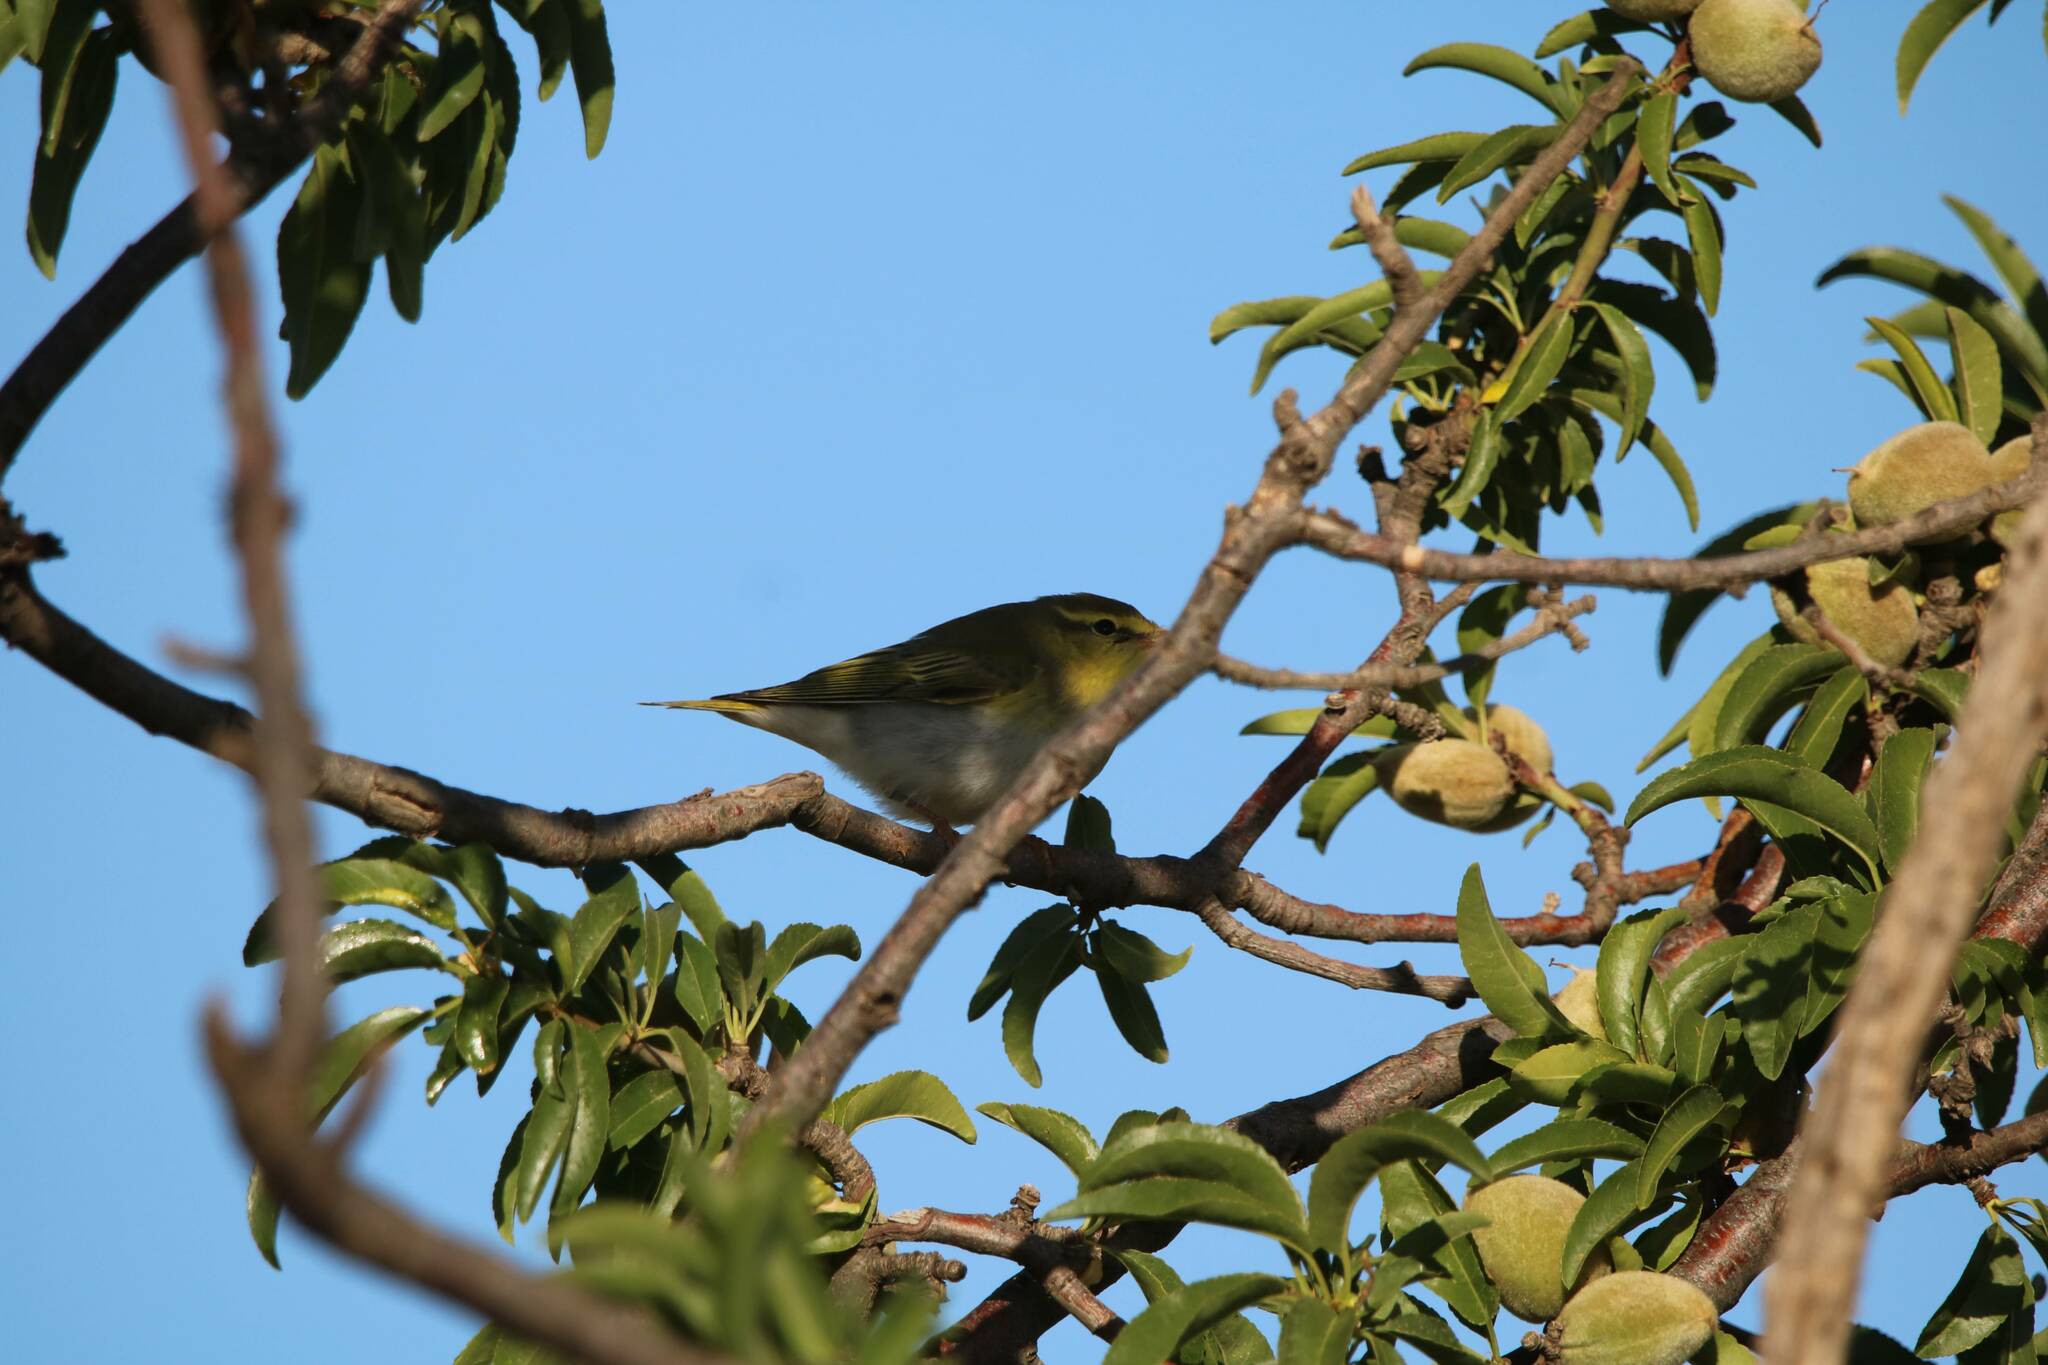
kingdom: Animalia
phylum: Chordata
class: Aves
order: Passeriformes
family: Phylloscopidae
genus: Phylloscopus
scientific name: Phylloscopus sibillatrix
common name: Wood warbler
